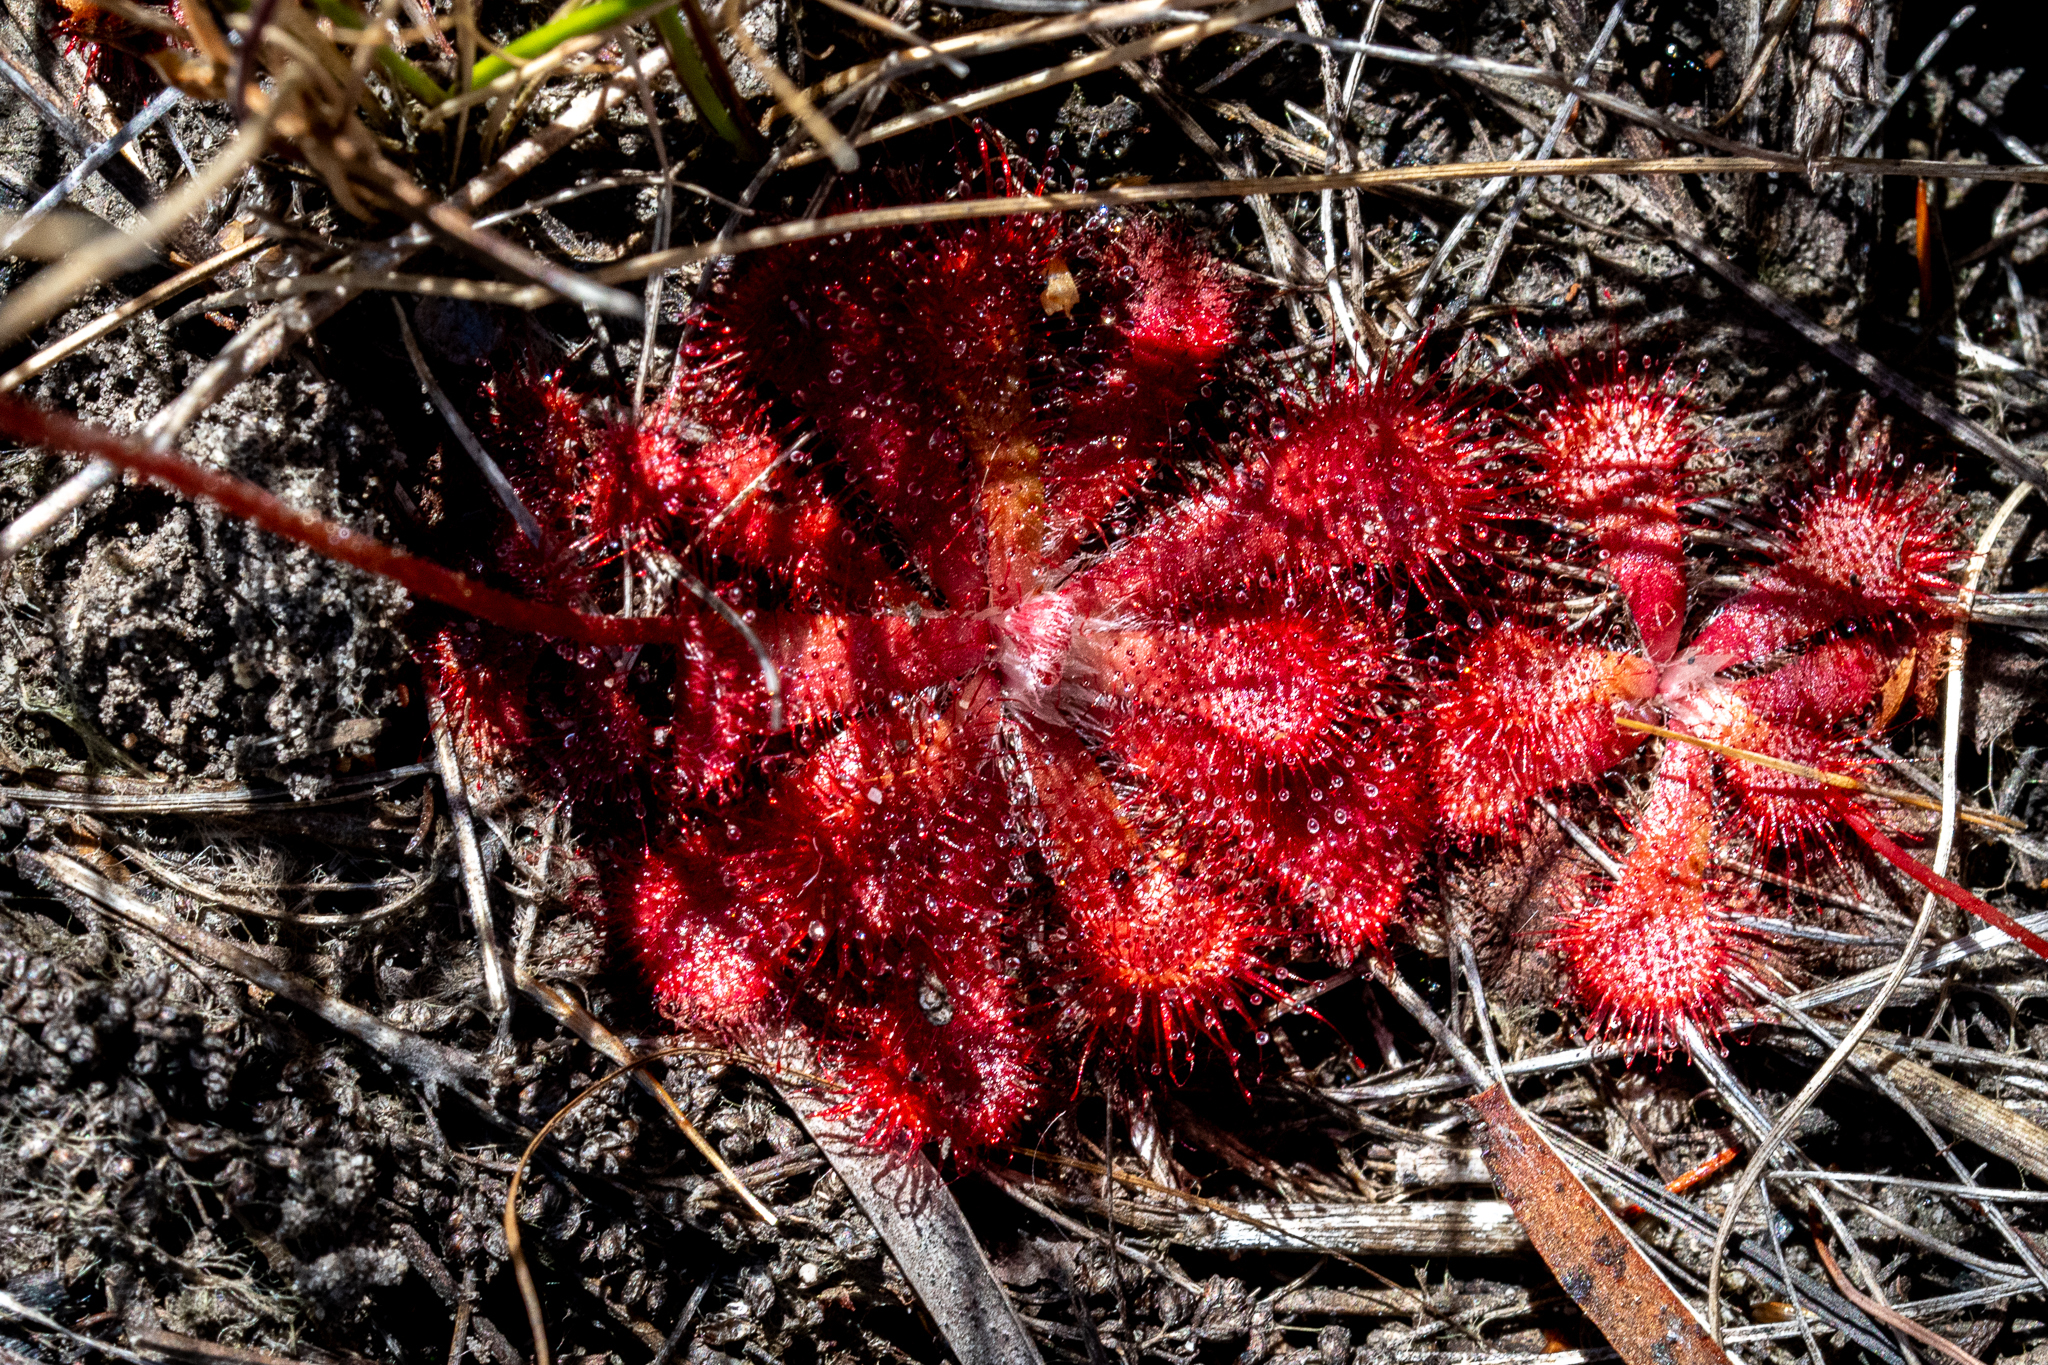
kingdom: Plantae
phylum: Tracheophyta
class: Magnoliopsida
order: Caryophyllales
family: Droseraceae
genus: Drosera
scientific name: Drosera aliciae
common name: Alice sundew
